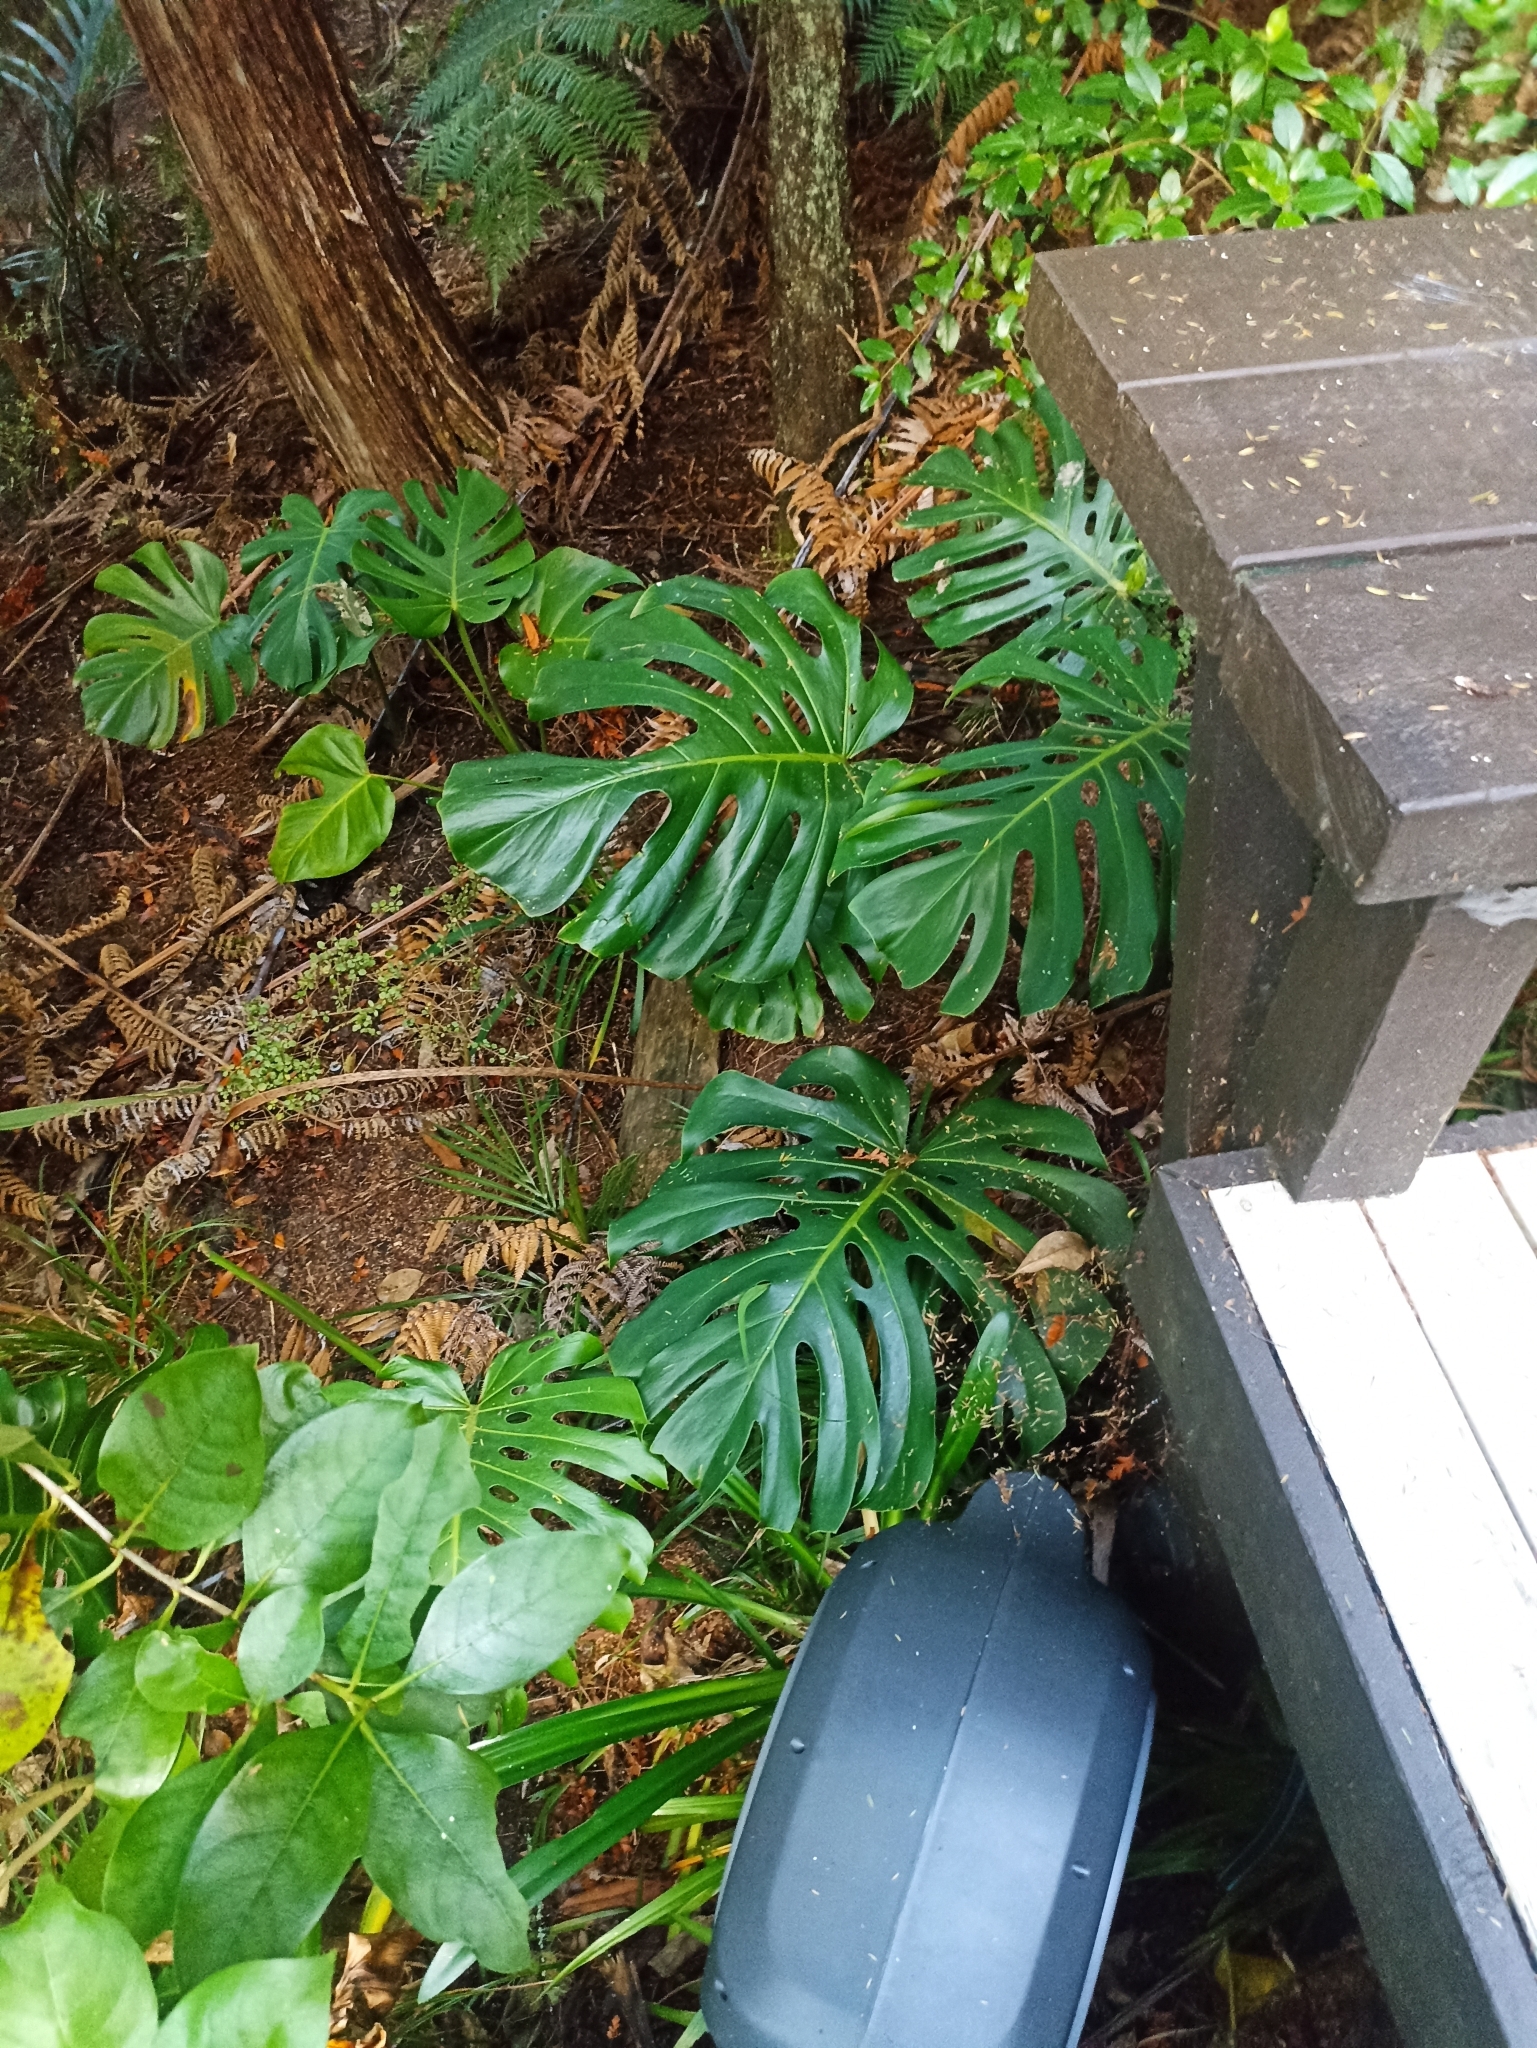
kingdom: Plantae
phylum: Tracheophyta
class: Liliopsida
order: Alismatales
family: Araceae
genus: Monstera
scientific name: Monstera deliciosa
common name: Cut-leaf-philodendron
